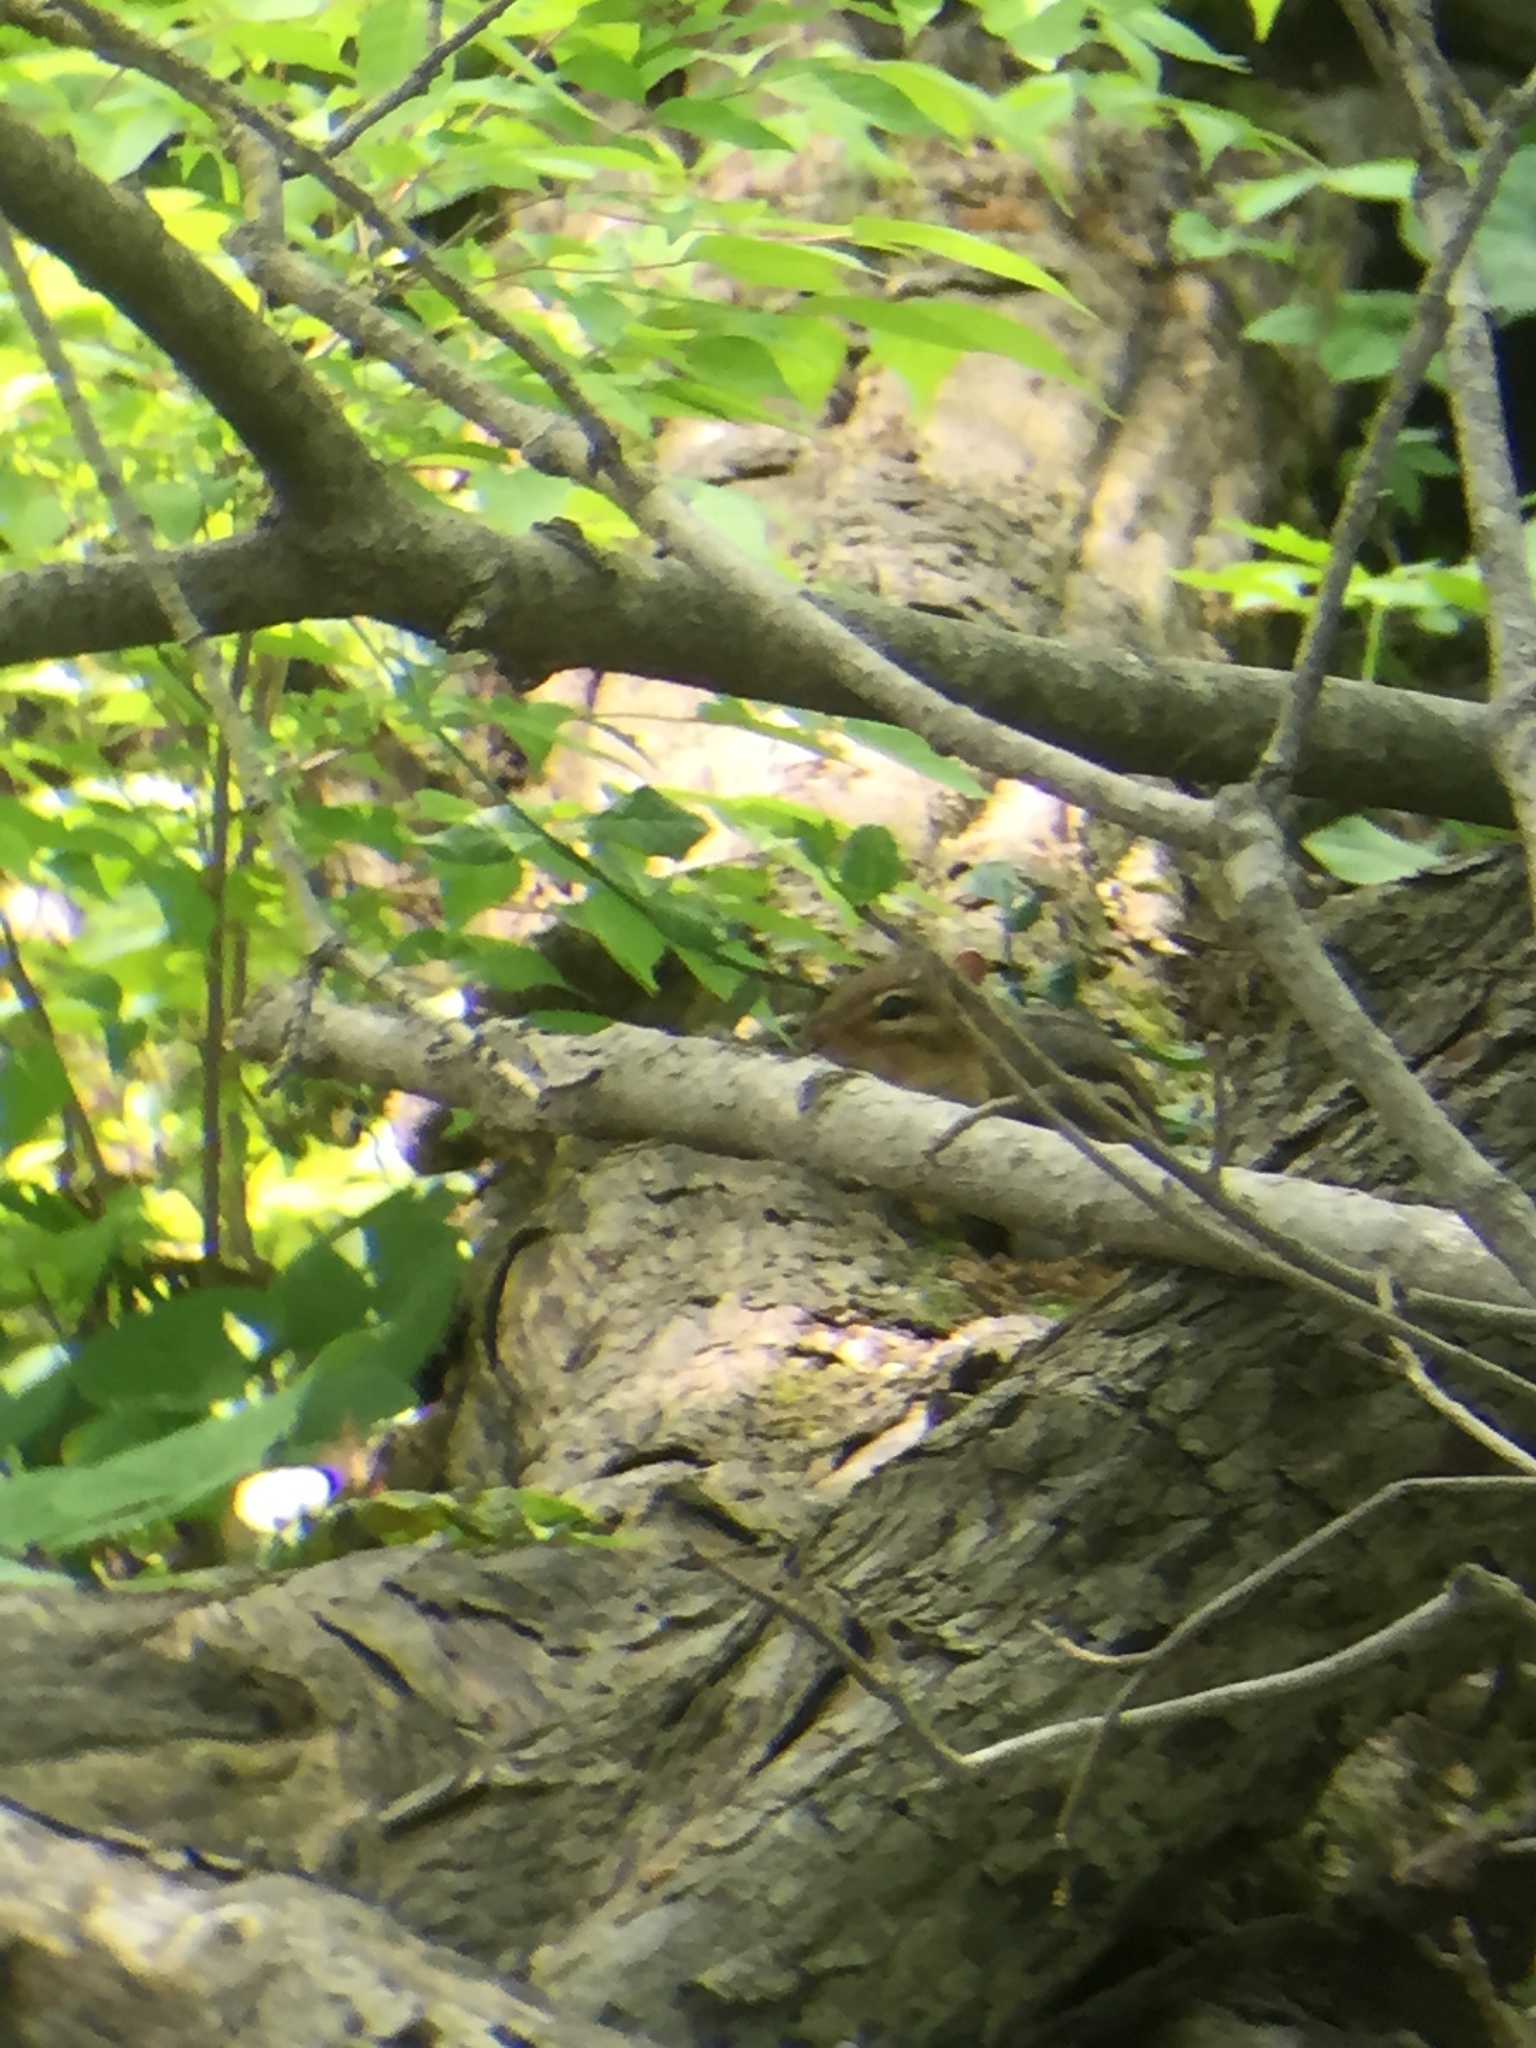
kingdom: Animalia
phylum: Chordata
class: Mammalia
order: Rodentia
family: Sciuridae
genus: Tamias
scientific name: Tamias striatus
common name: Eastern chipmunk
